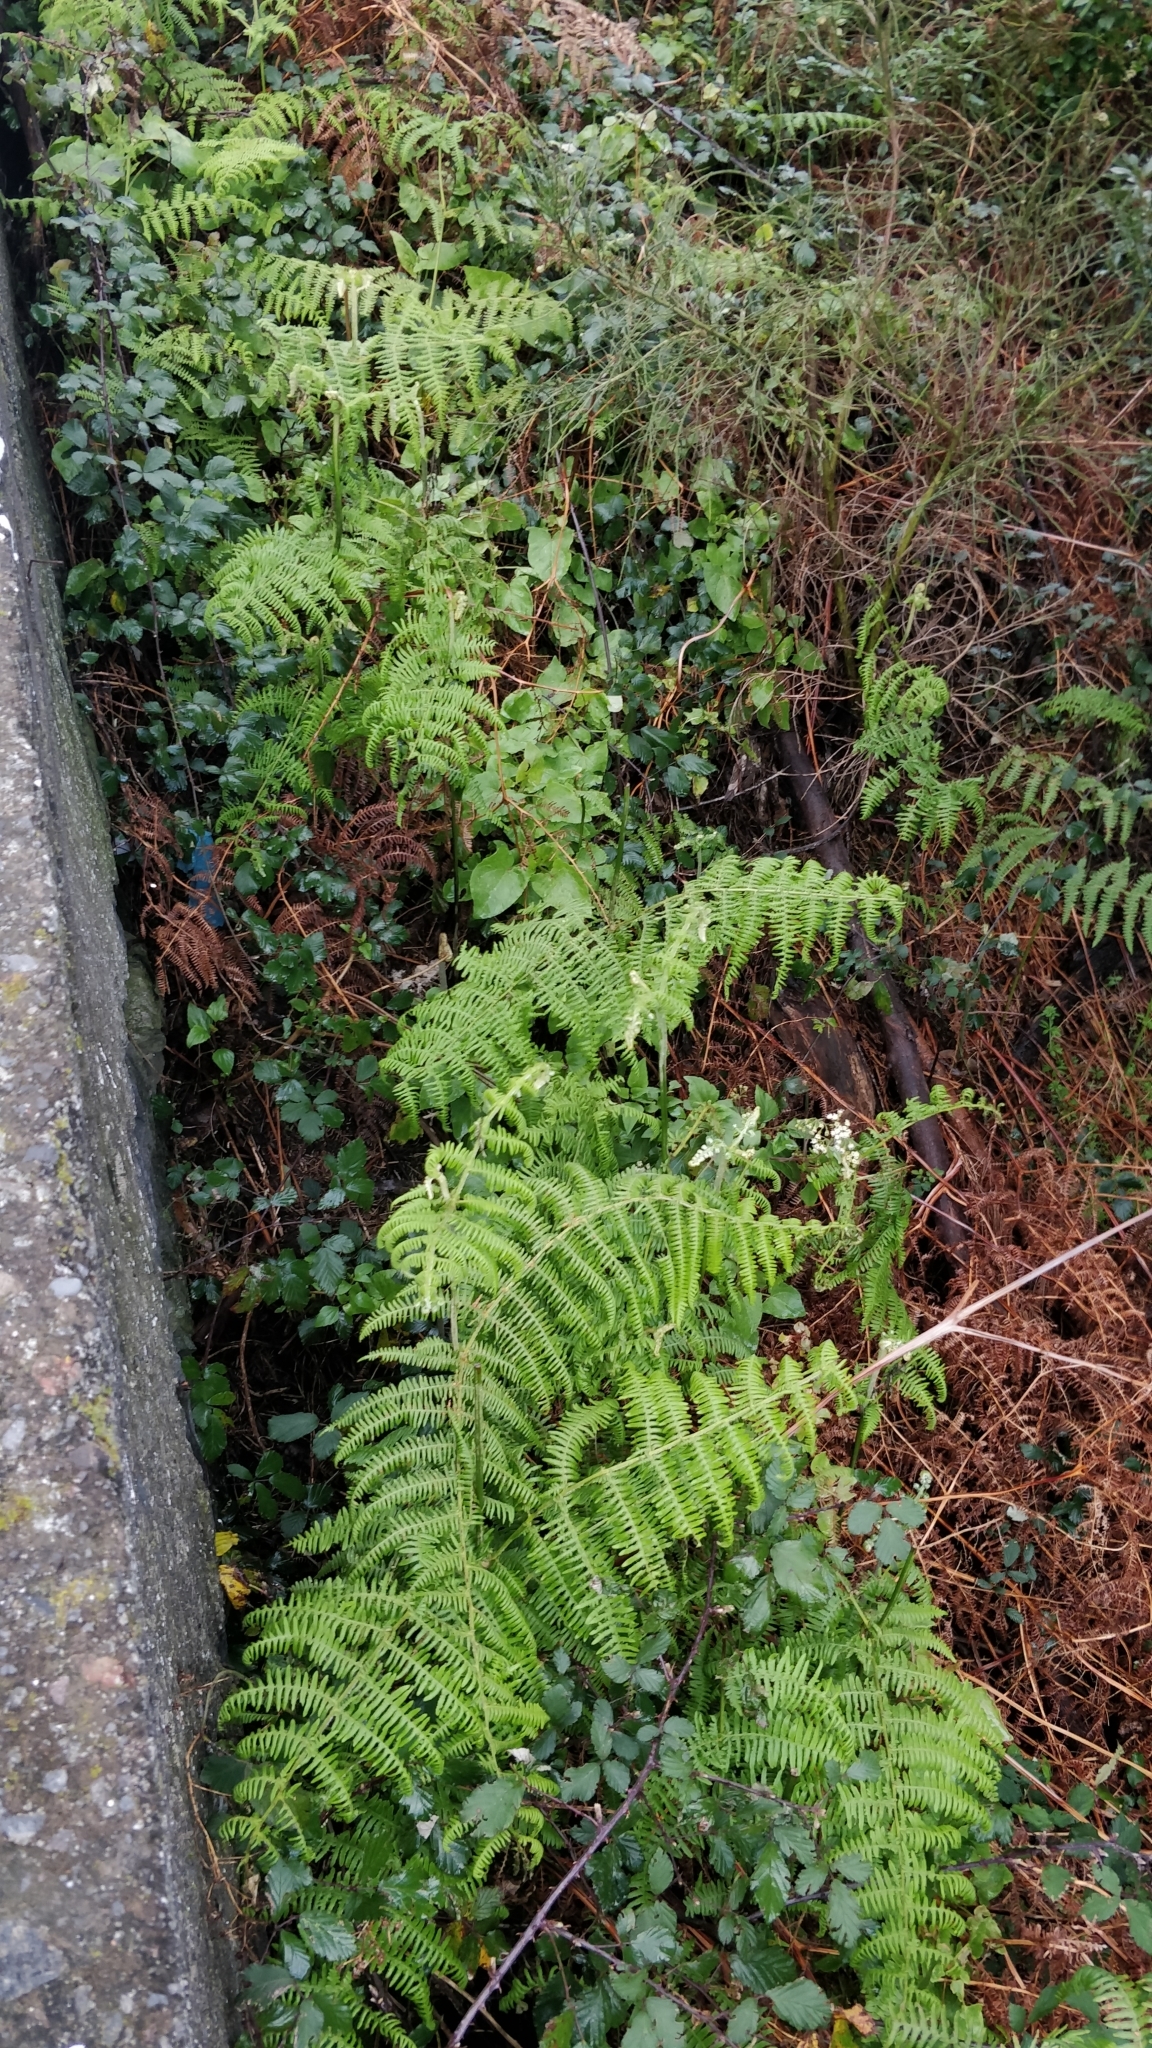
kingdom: Plantae
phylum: Tracheophyta
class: Polypodiopsida
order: Polypodiales
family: Dennstaedtiaceae
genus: Pteridium
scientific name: Pteridium aquilinum
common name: Bracken
